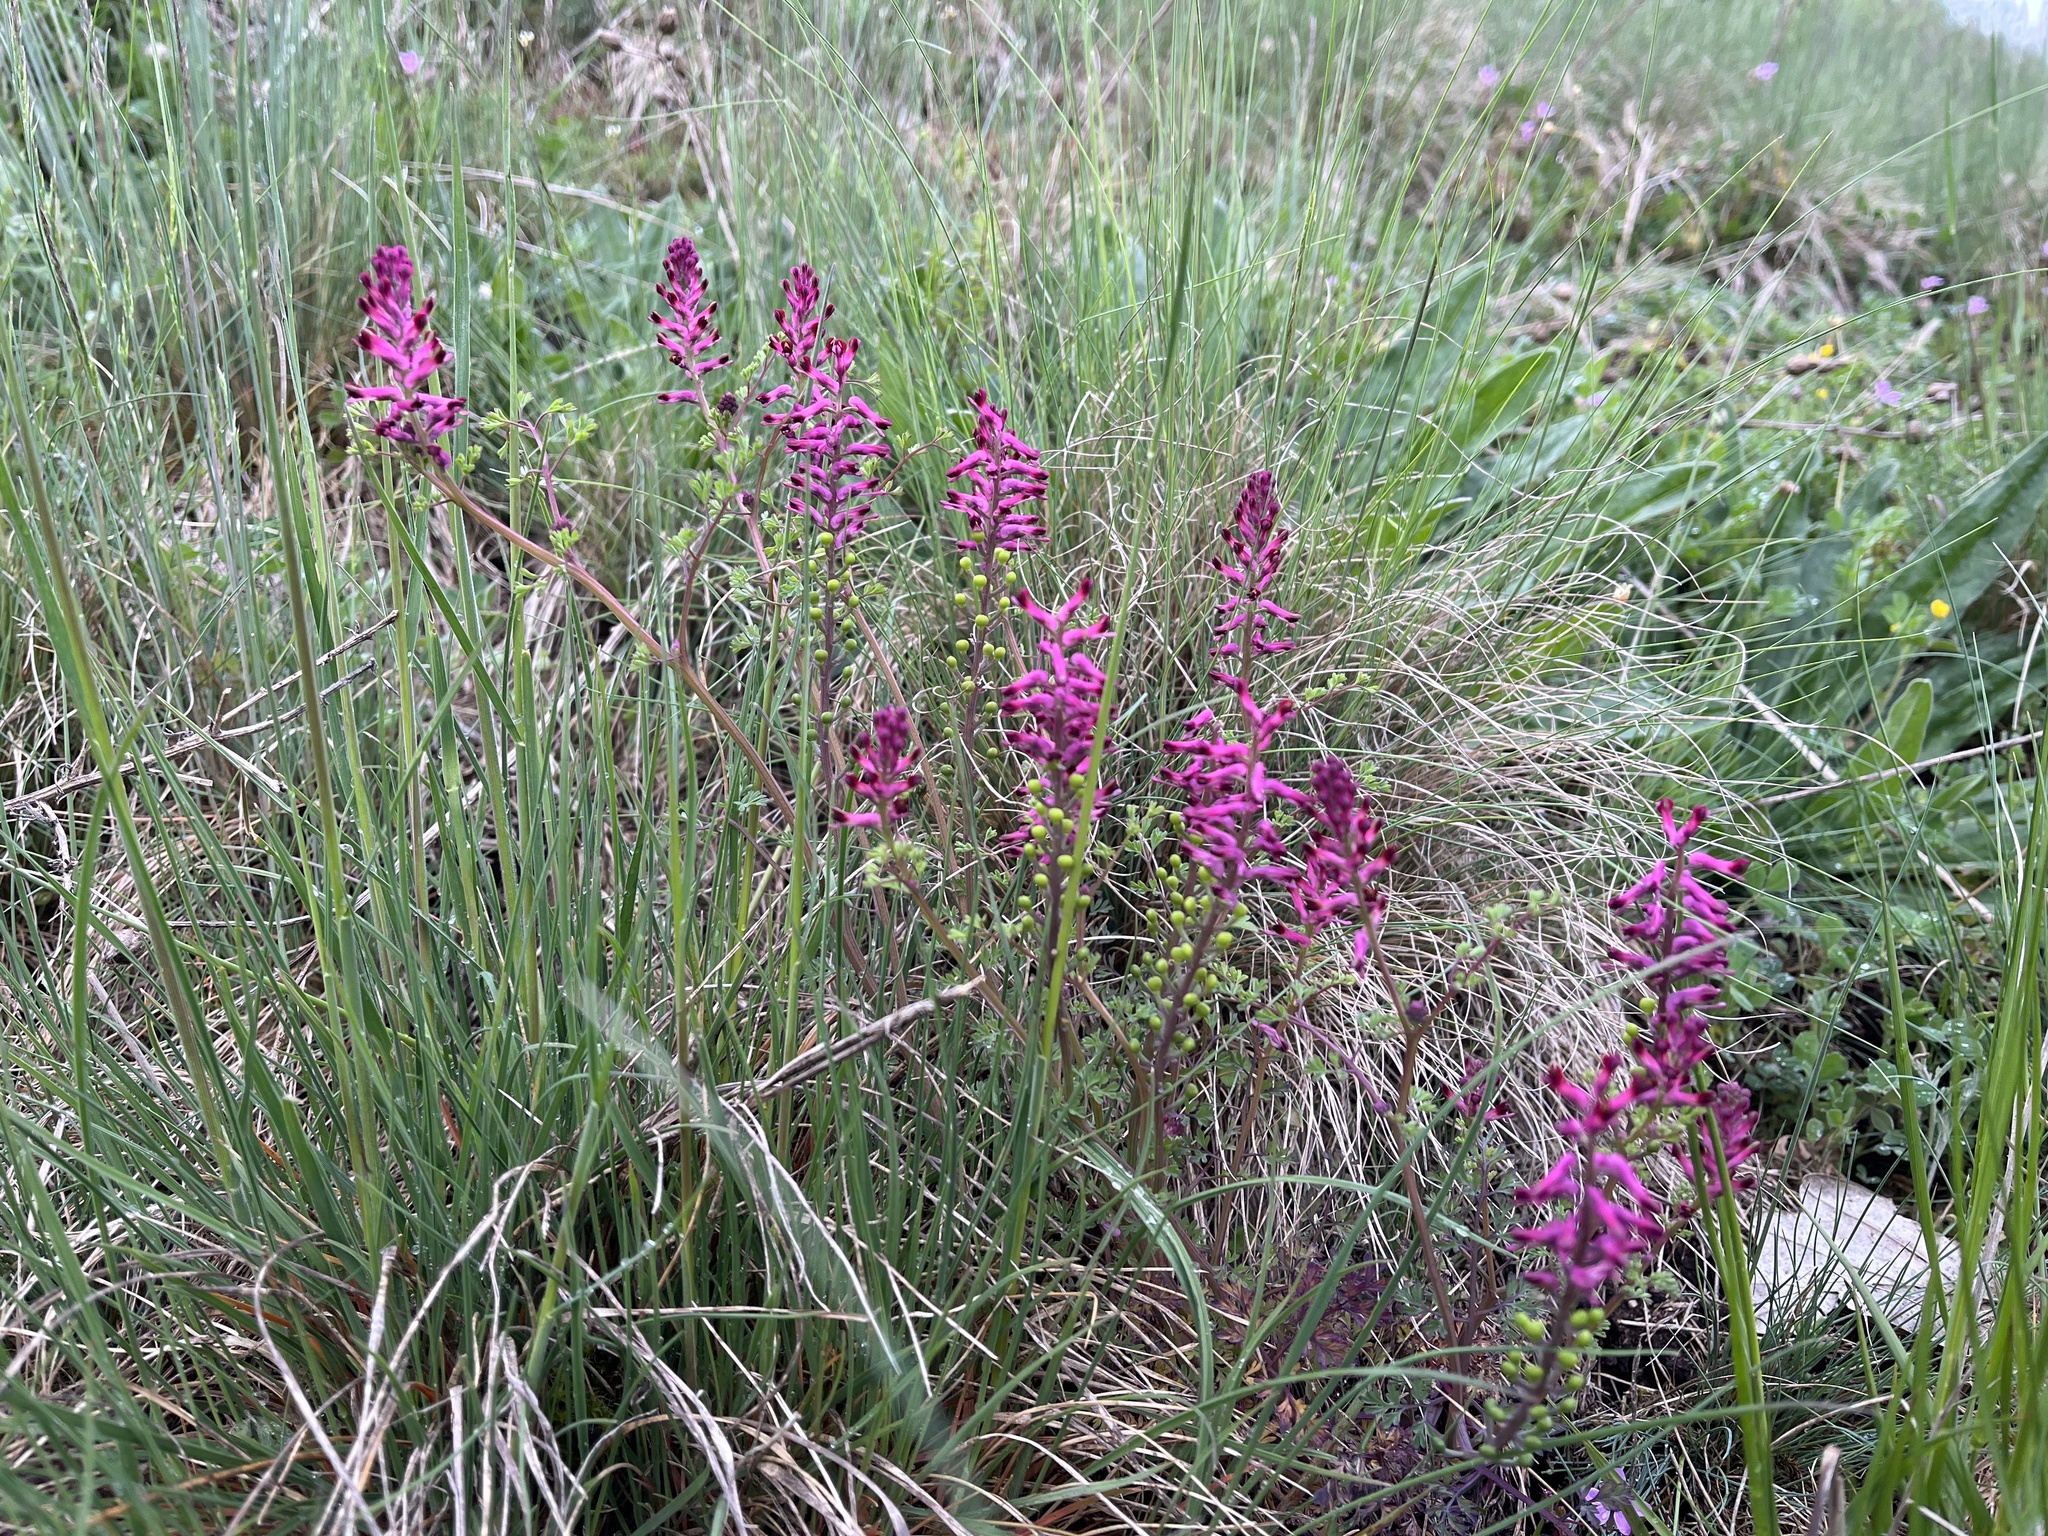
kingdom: Plantae
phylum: Tracheophyta
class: Magnoliopsida
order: Ranunculales
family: Papaveraceae
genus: Fumaria
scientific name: Fumaria officinalis
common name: Common fumitory
